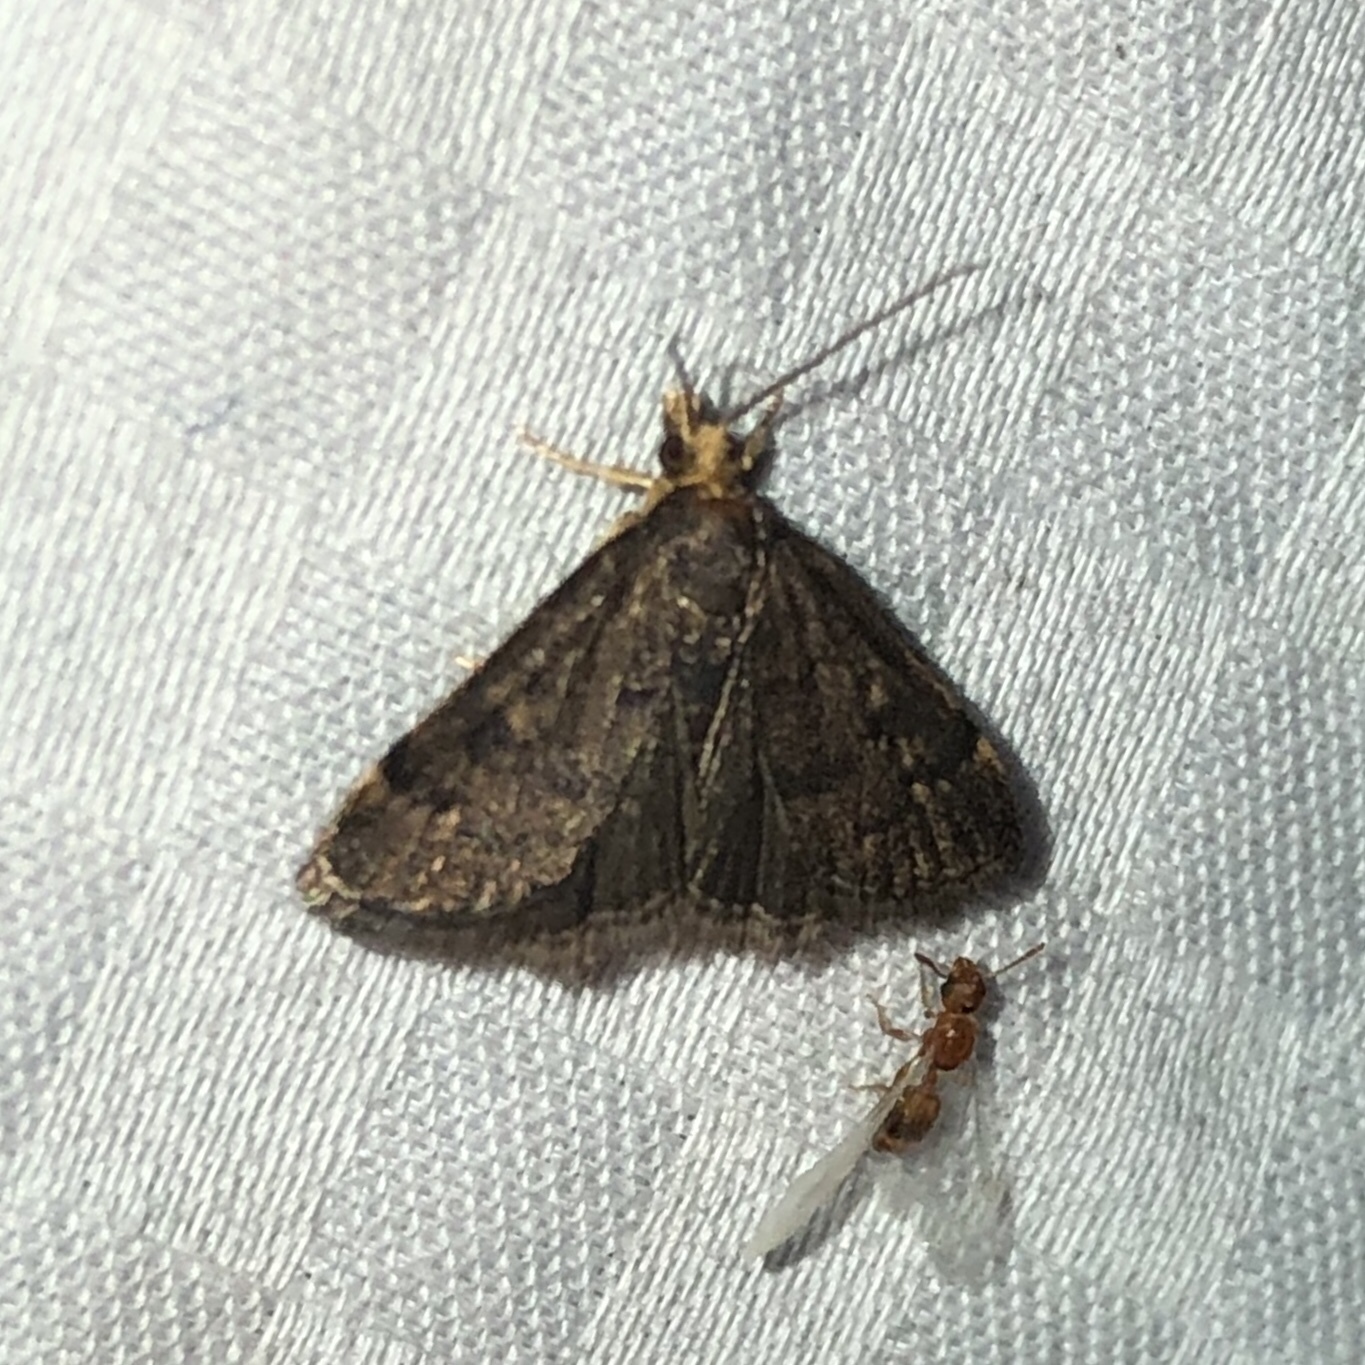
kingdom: Animalia
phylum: Arthropoda
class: Insecta
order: Lepidoptera
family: Crambidae
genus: Pyrausta
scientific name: Pyrausta merrickalis
